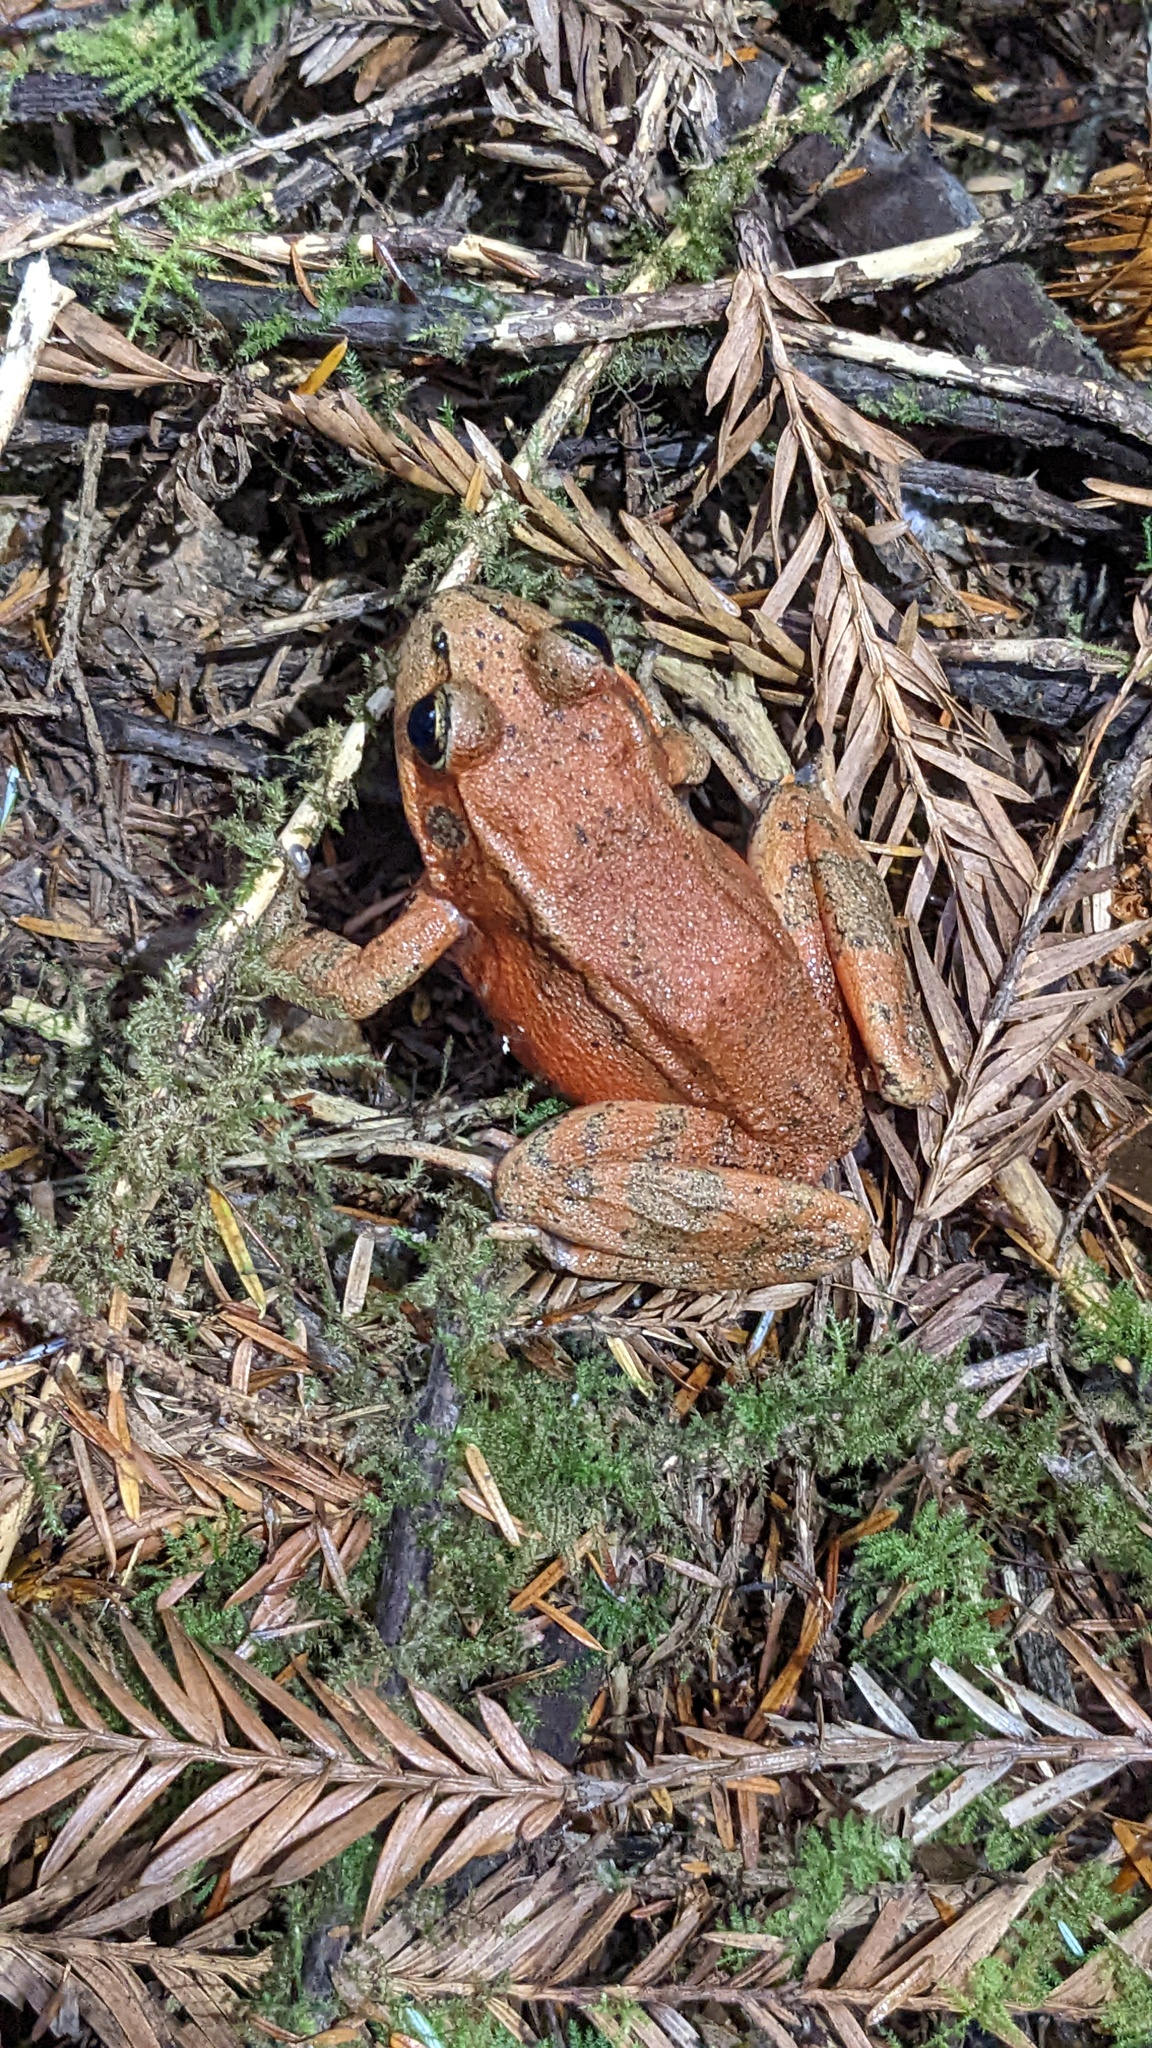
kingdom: Animalia
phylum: Chordata
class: Amphibia
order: Anura
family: Ranidae
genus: Rana
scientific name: Rana aurora
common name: Red-legged frog
